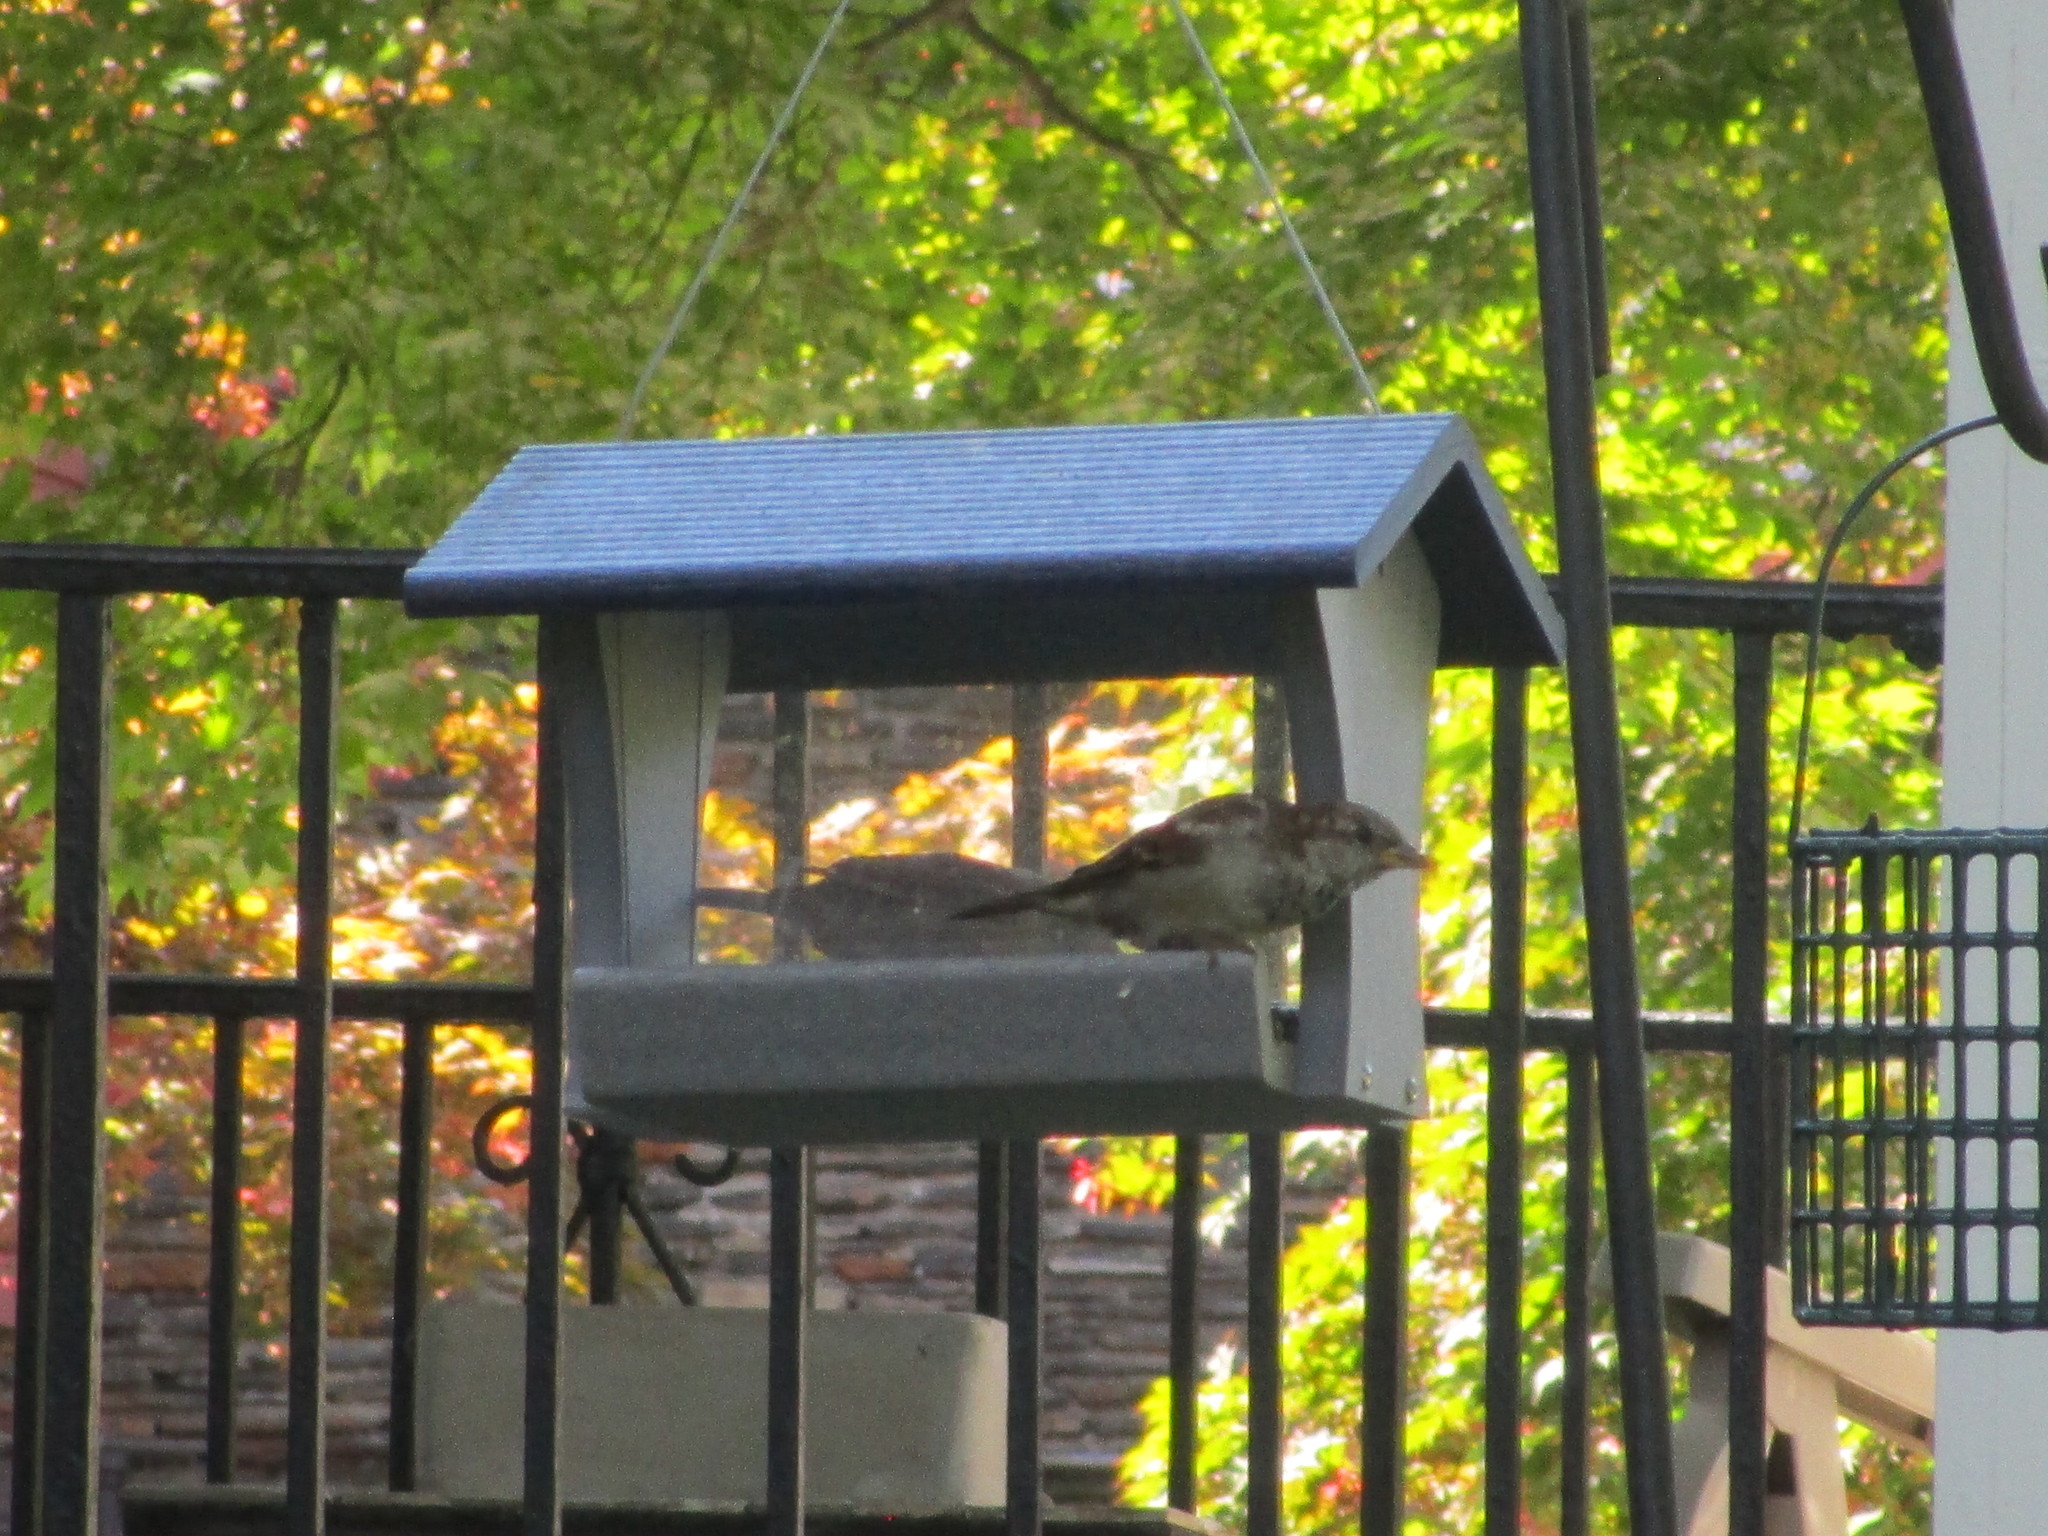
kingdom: Animalia
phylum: Chordata
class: Aves
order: Passeriformes
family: Passeridae
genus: Passer
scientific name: Passer domesticus
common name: House sparrow
